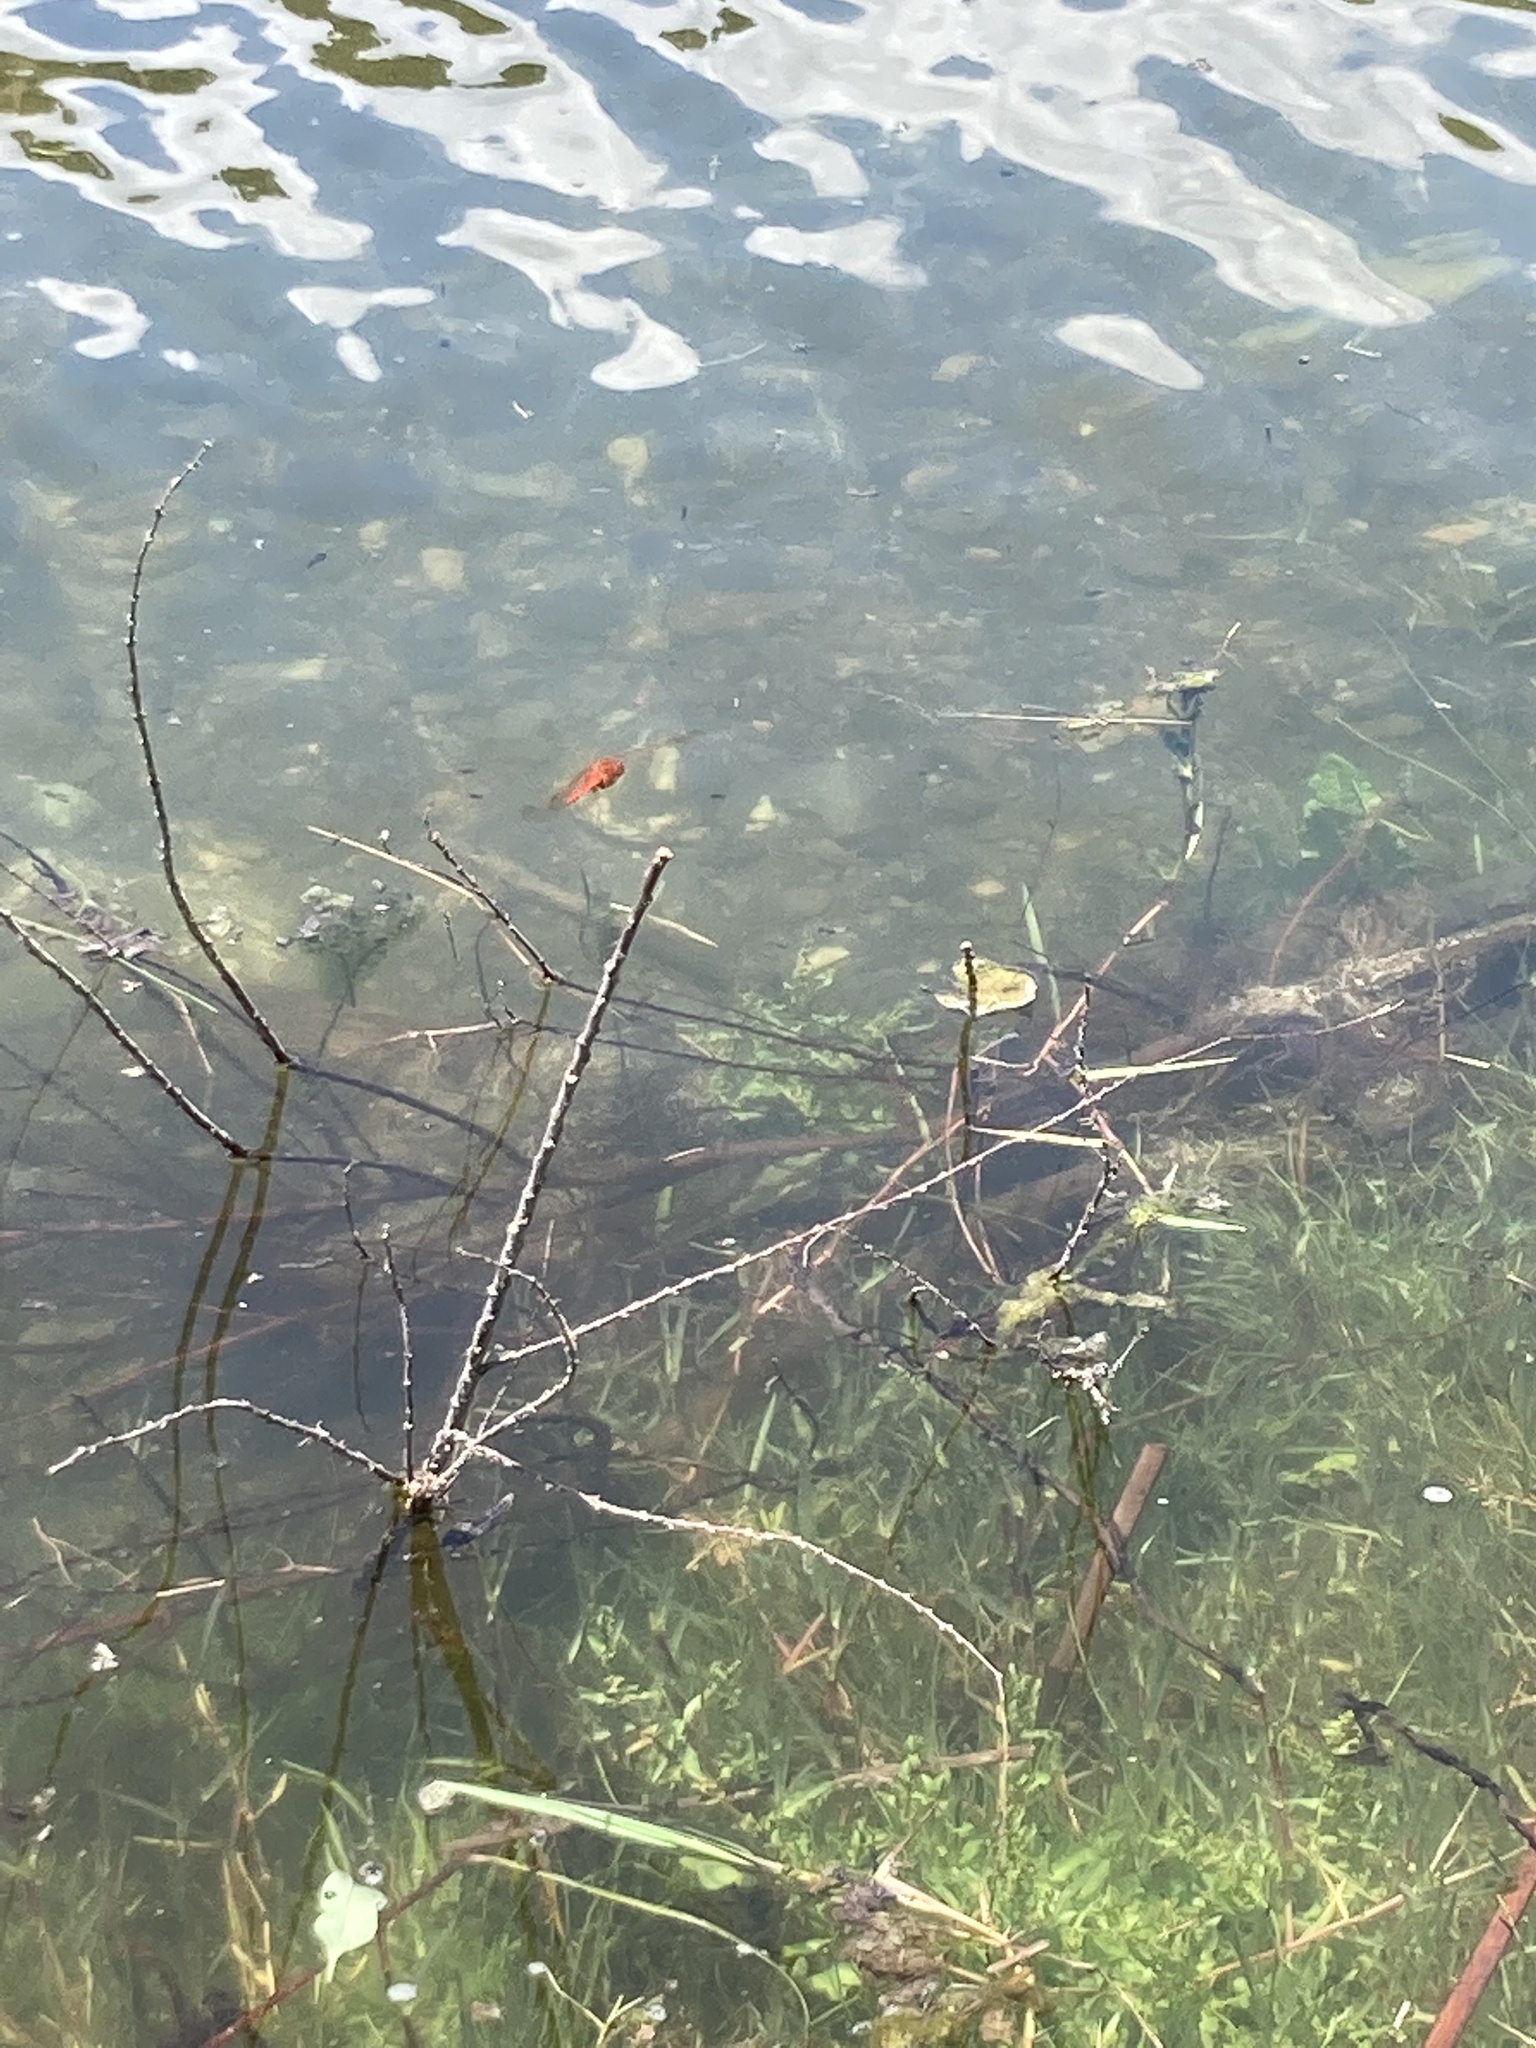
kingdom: Animalia
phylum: Arthropoda
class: Insecta
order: Odonata
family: Libellulidae
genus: Crocothemis
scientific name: Crocothemis erythraea
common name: Scarlet dragonfly
